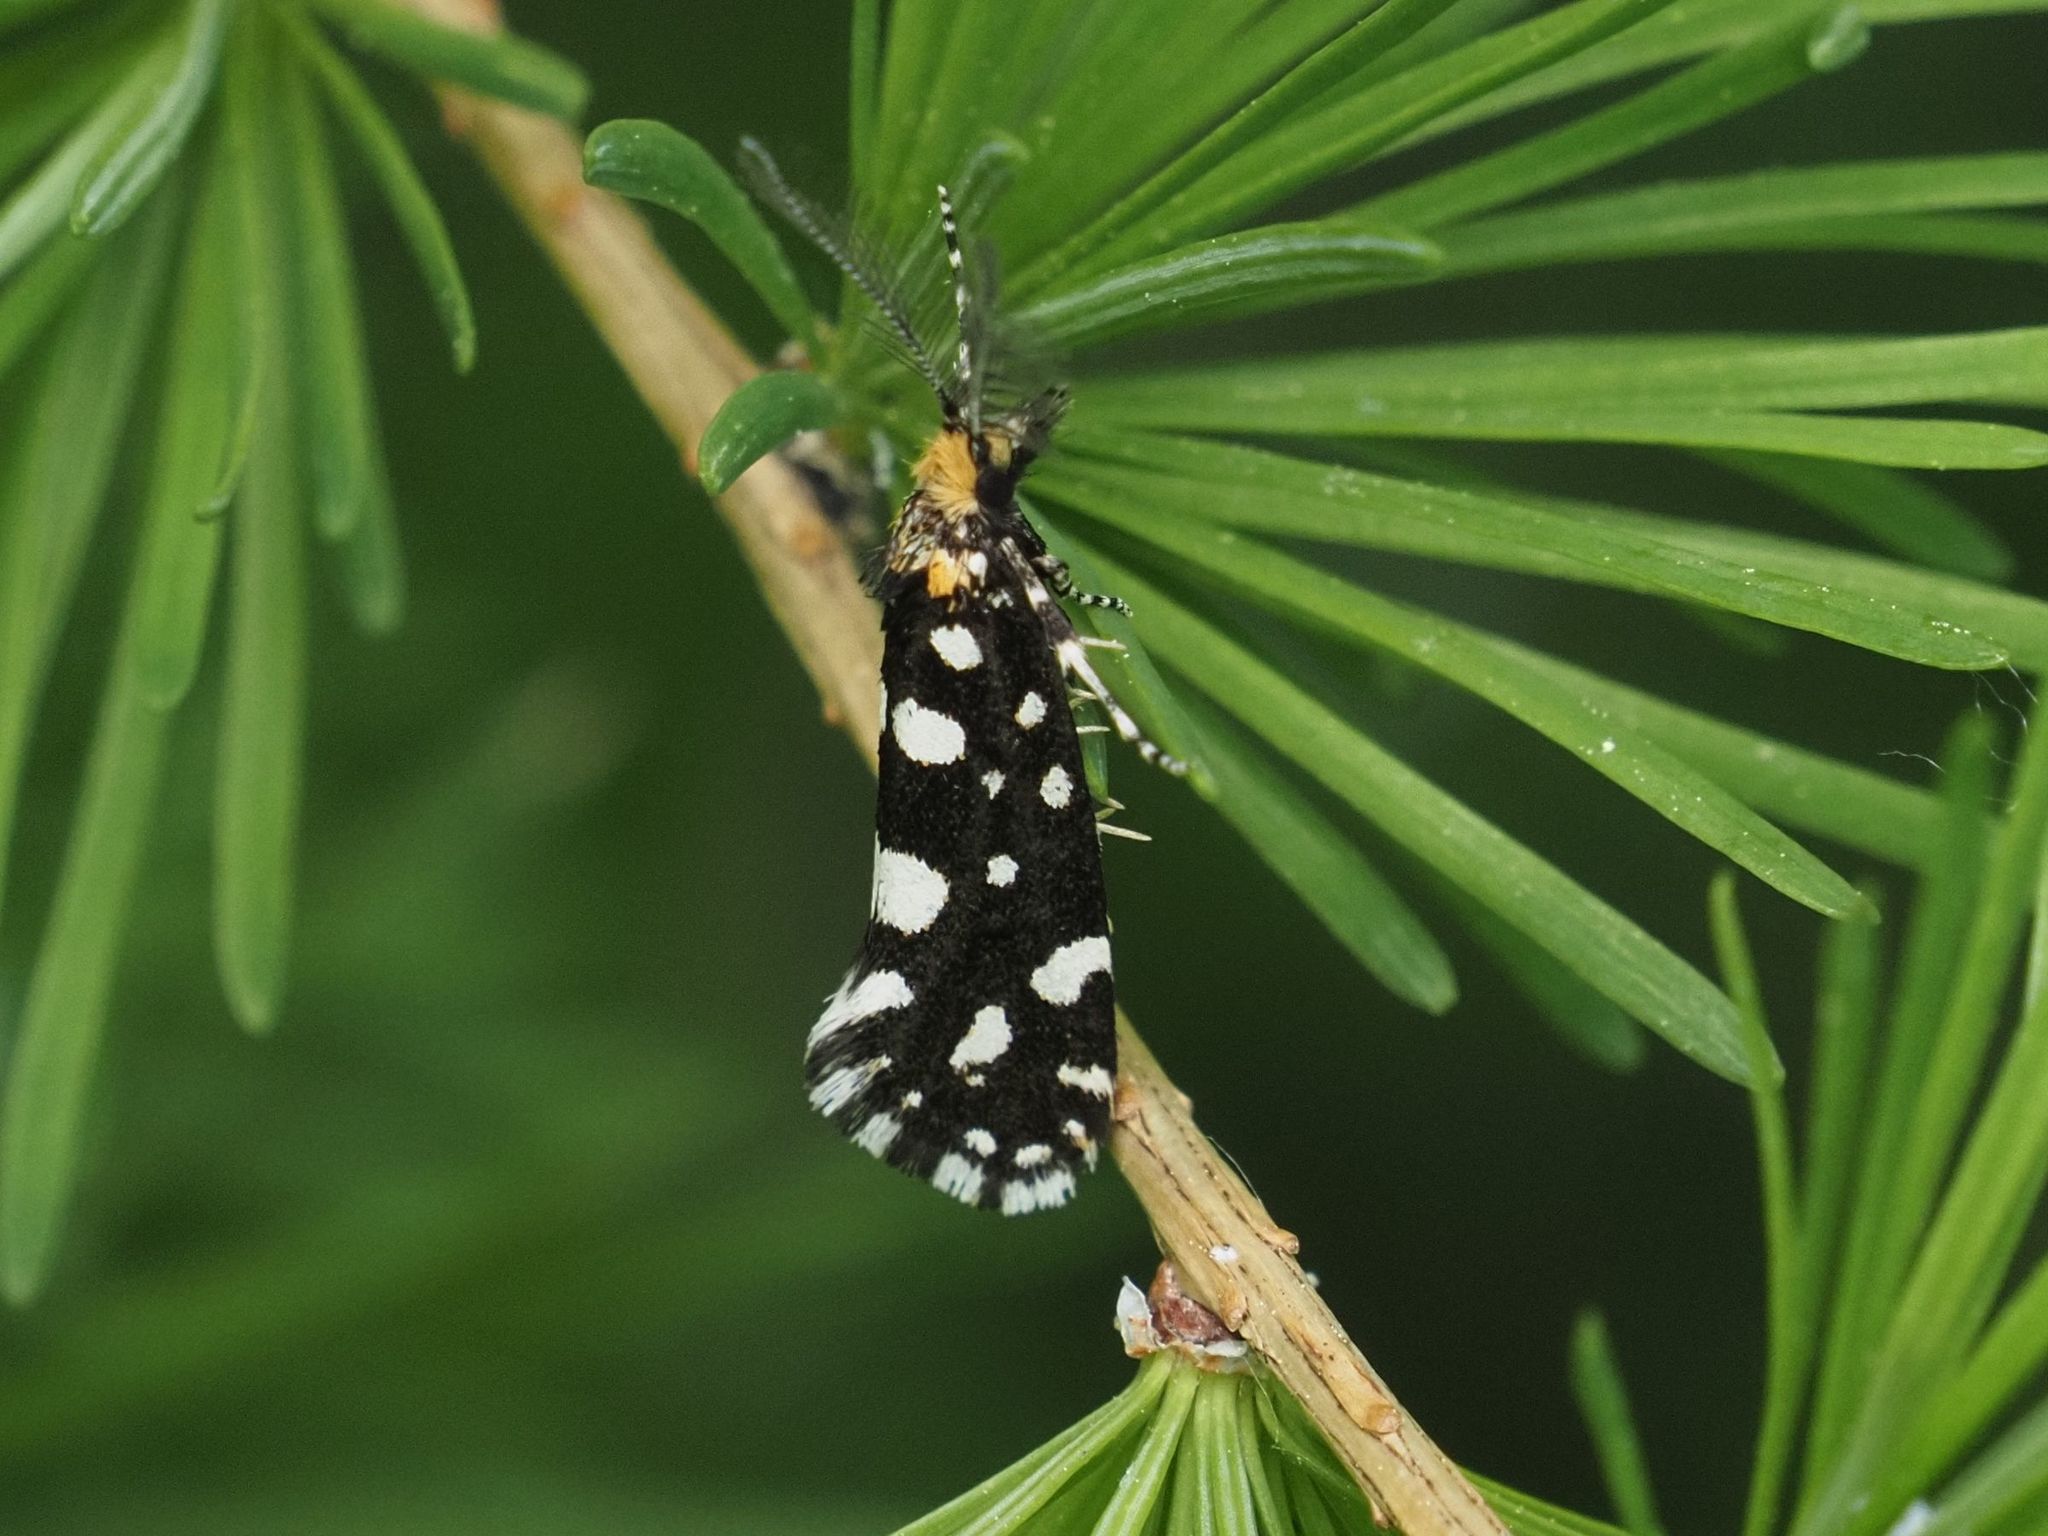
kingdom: Animalia
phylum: Arthropoda
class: Insecta
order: Lepidoptera
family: Tineidae
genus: Euplocamus
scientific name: Euplocamus anthracinalis
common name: Black clothes
